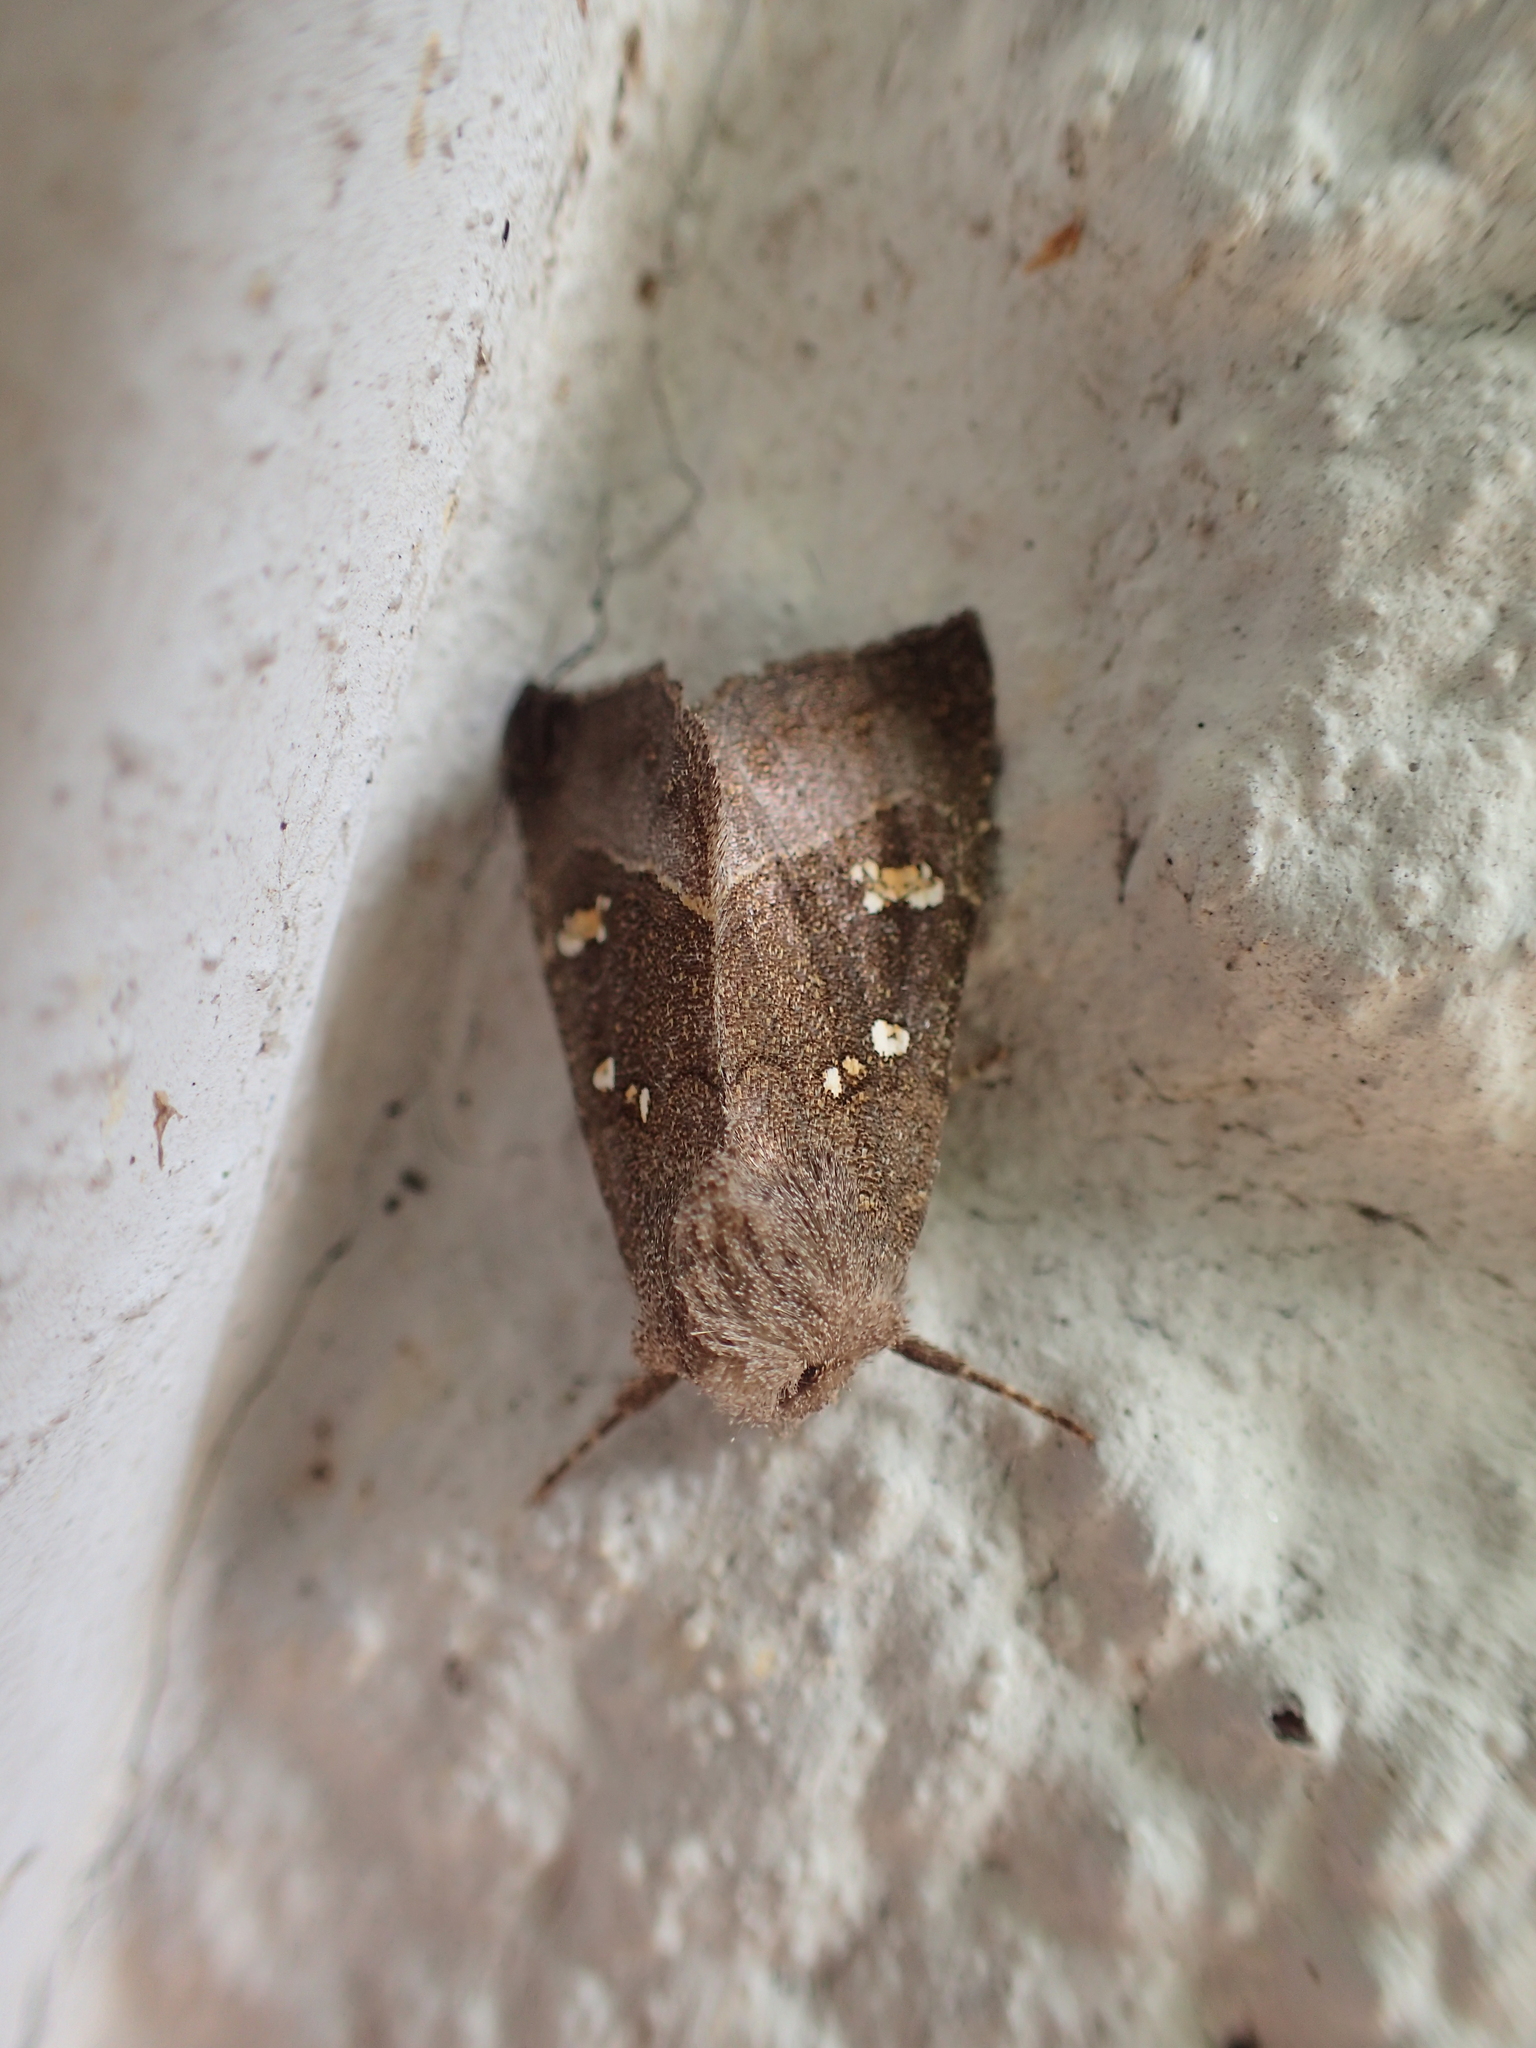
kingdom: Animalia
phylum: Arthropoda
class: Insecta
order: Lepidoptera
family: Noctuidae
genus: Papaipema
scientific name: Papaipema nebris
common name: Stalk borer
